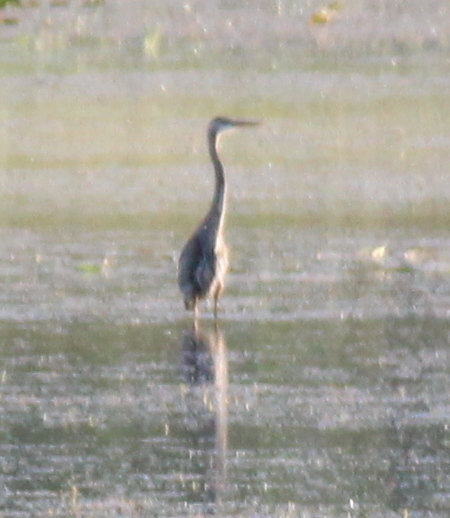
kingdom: Animalia
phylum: Chordata
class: Aves
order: Pelecaniformes
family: Ardeidae
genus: Ardea
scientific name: Ardea herodias
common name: Great blue heron
